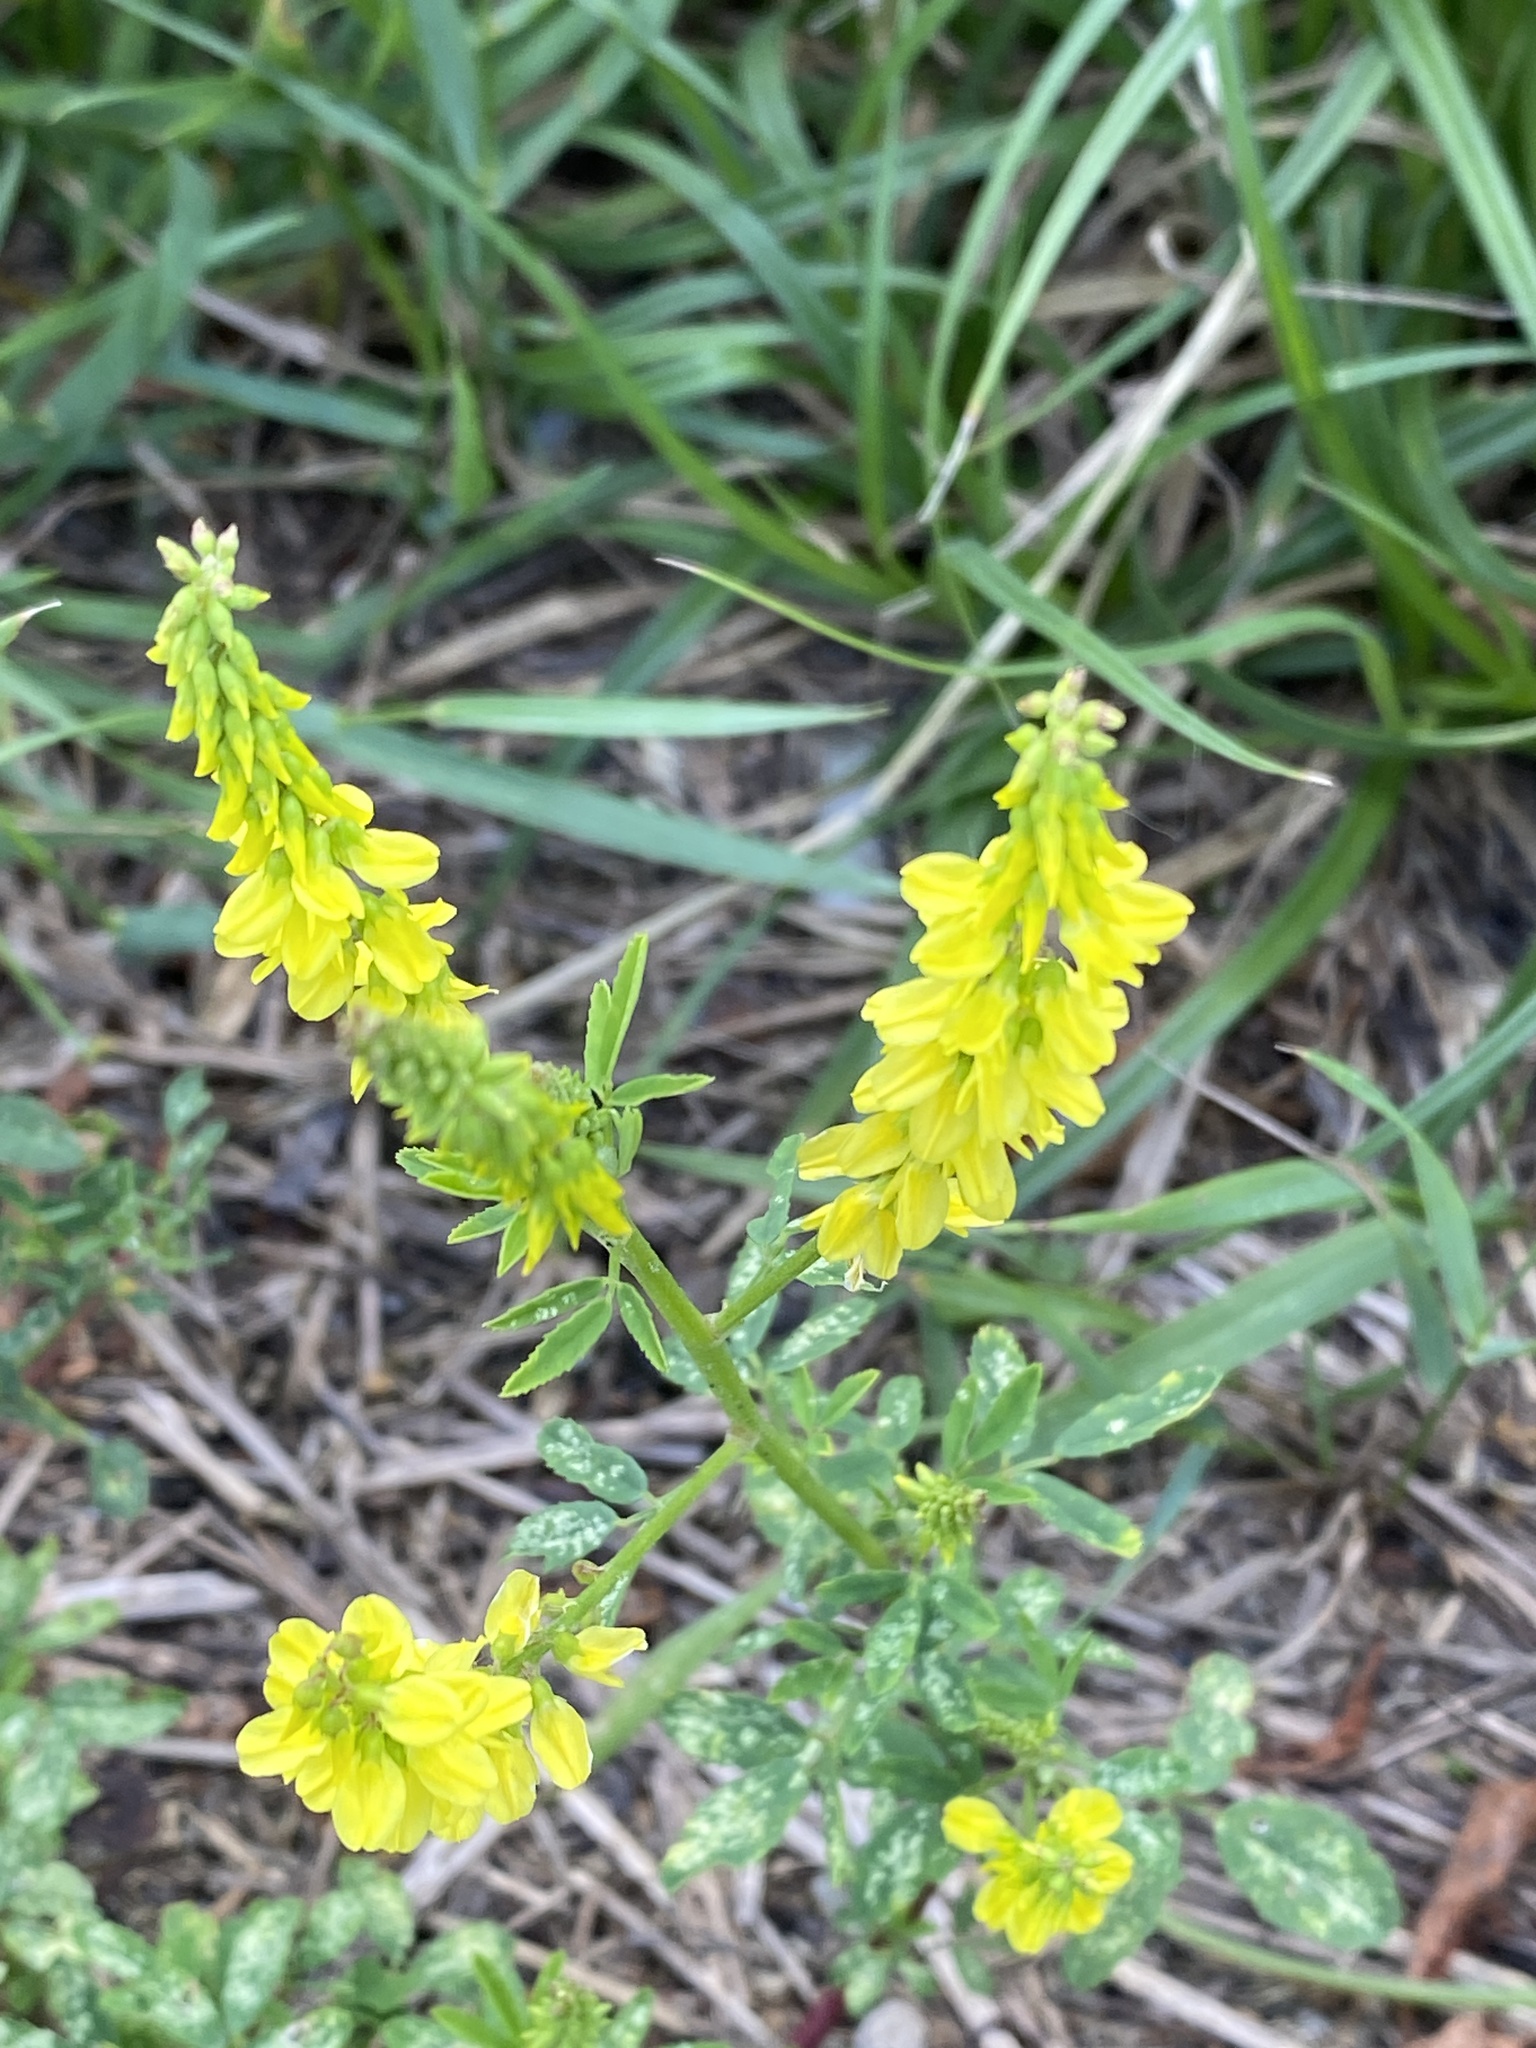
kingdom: Plantae
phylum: Tracheophyta
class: Magnoliopsida
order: Fabales
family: Fabaceae
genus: Melilotus
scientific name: Melilotus officinalis
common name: Sweetclover
